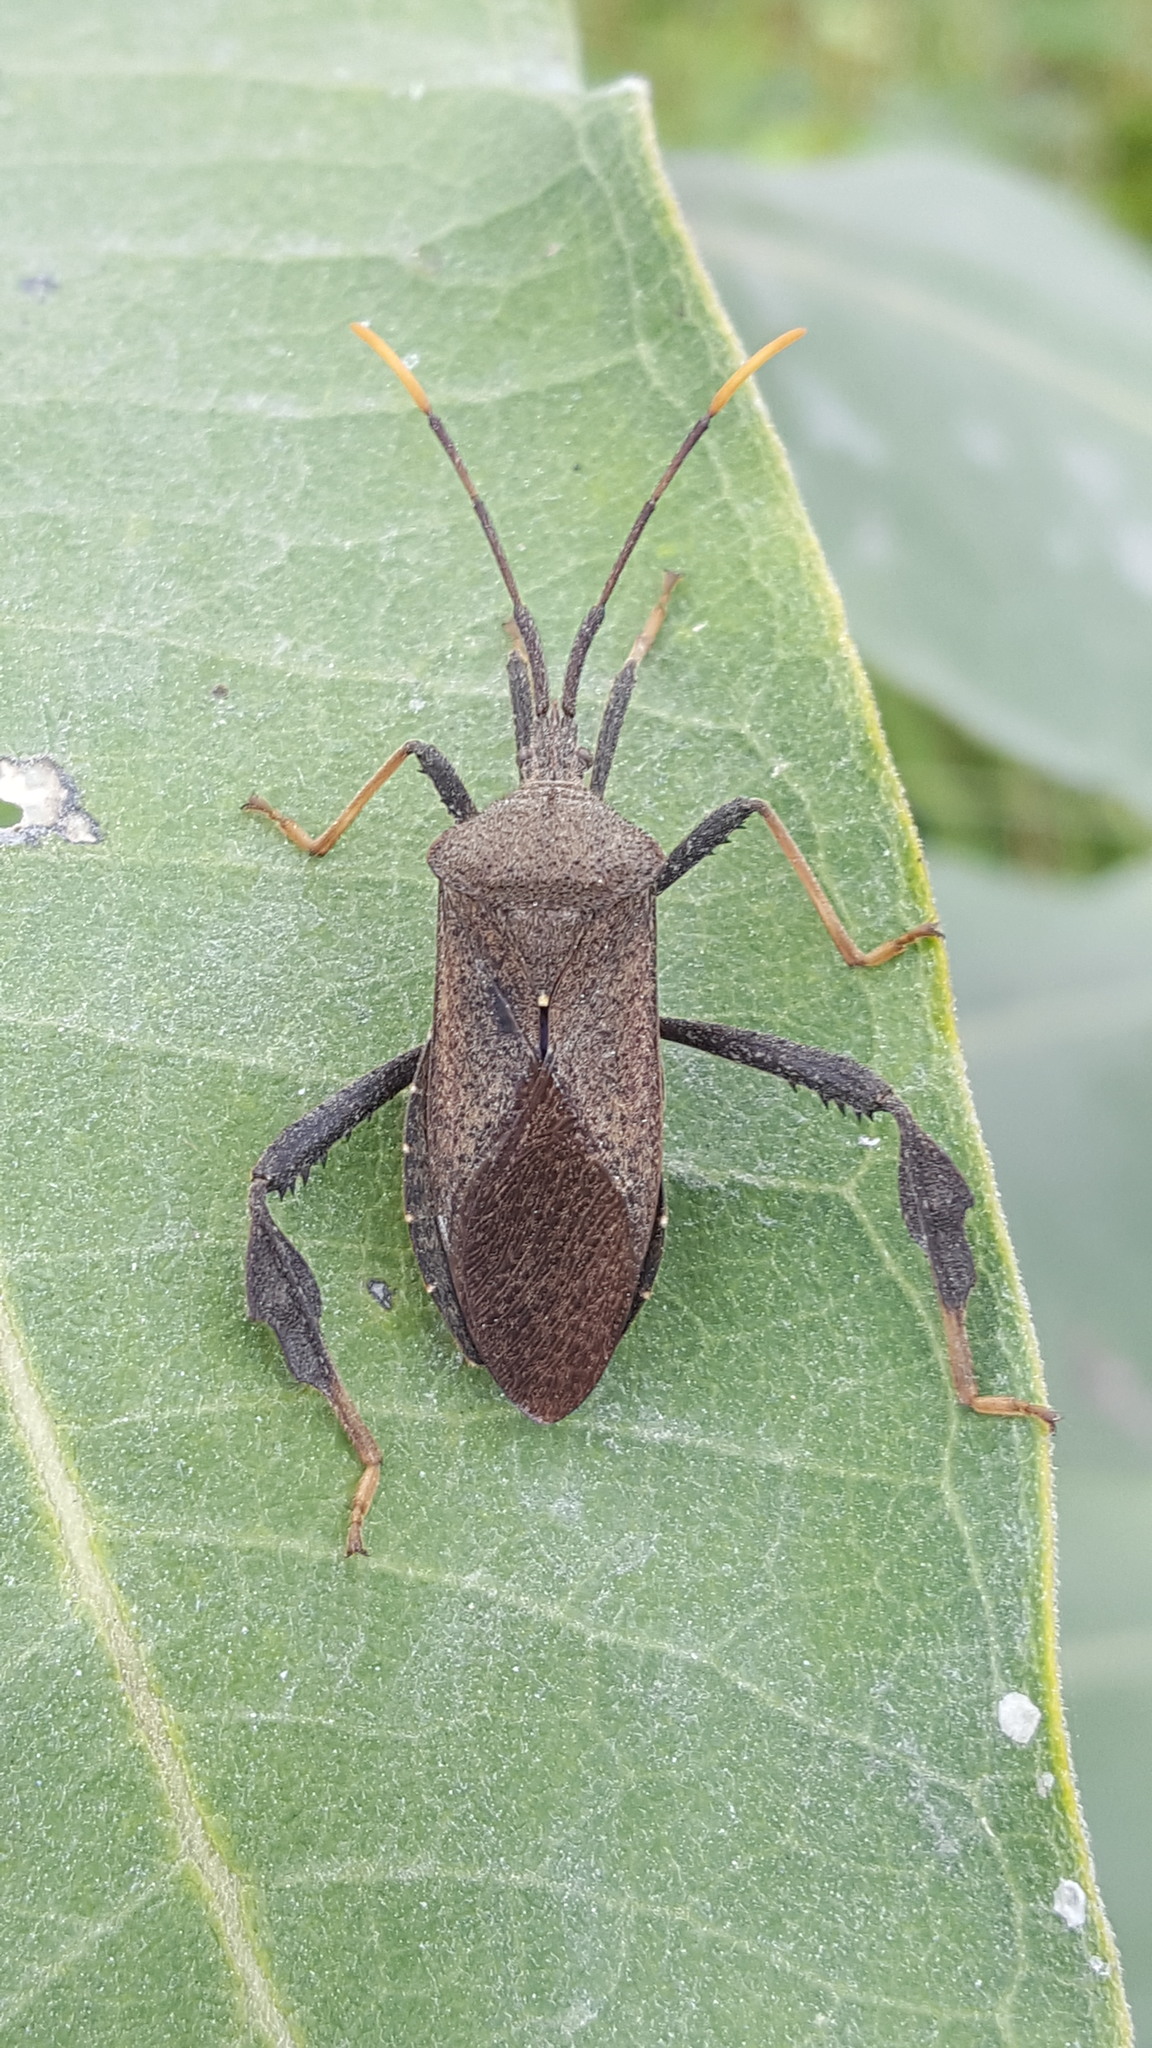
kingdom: Animalia
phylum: Arthropoda
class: Insecta
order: Hemiptera
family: Coreidae
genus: Acanthocephala
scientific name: Acanthocephala terminalis
